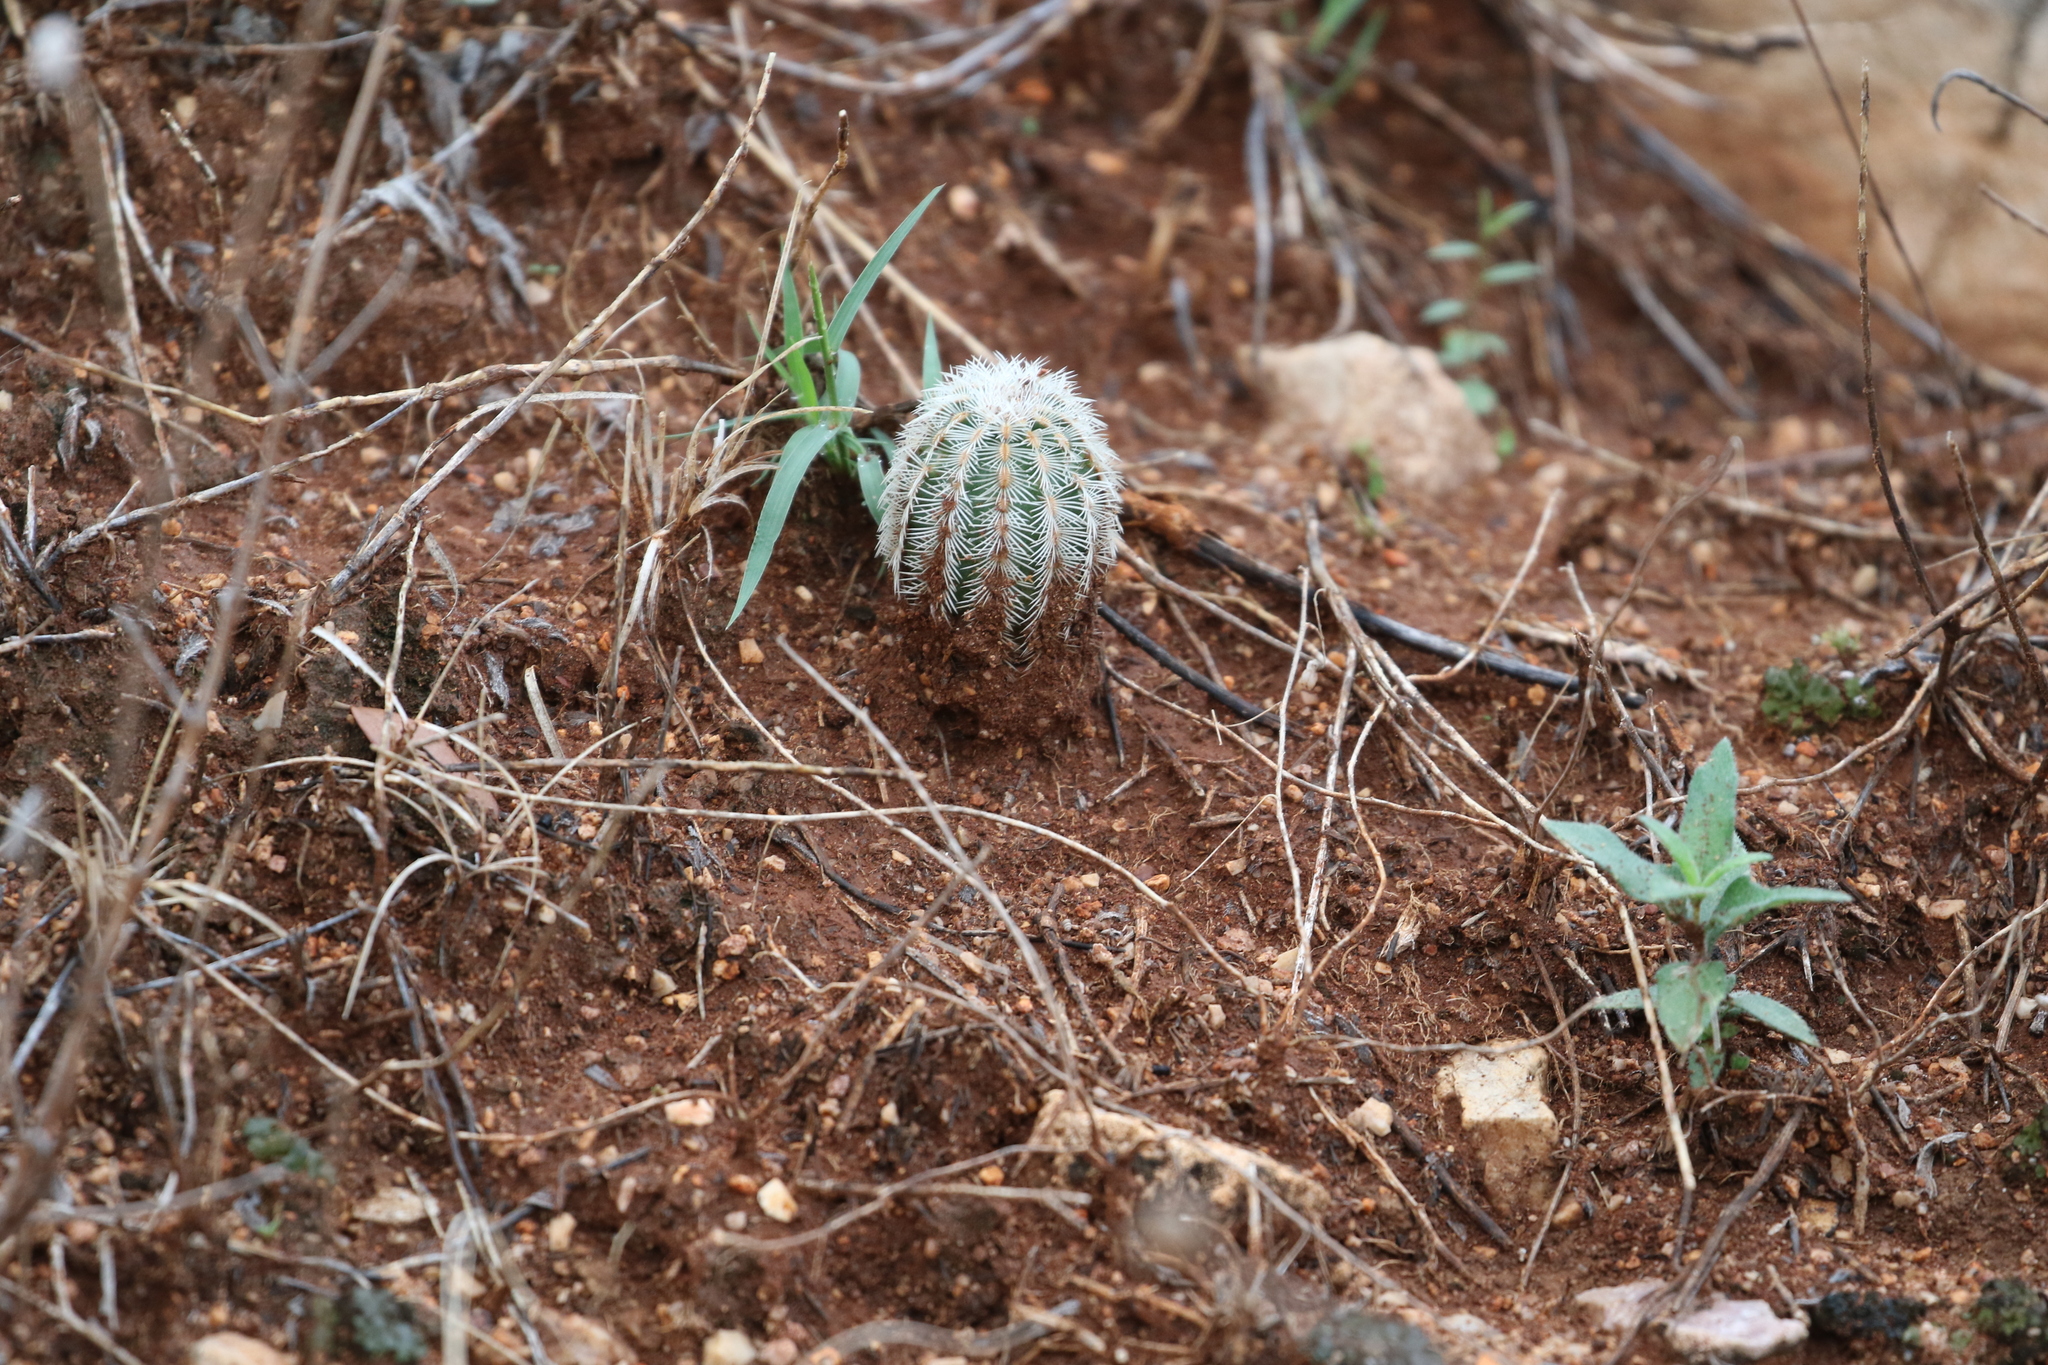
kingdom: Plantae
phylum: Tracheophyta
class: Magnoliopsida
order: Caryophyllales
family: Cactaceae
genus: Echinocereus
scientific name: Echinocereus reichenbachii
